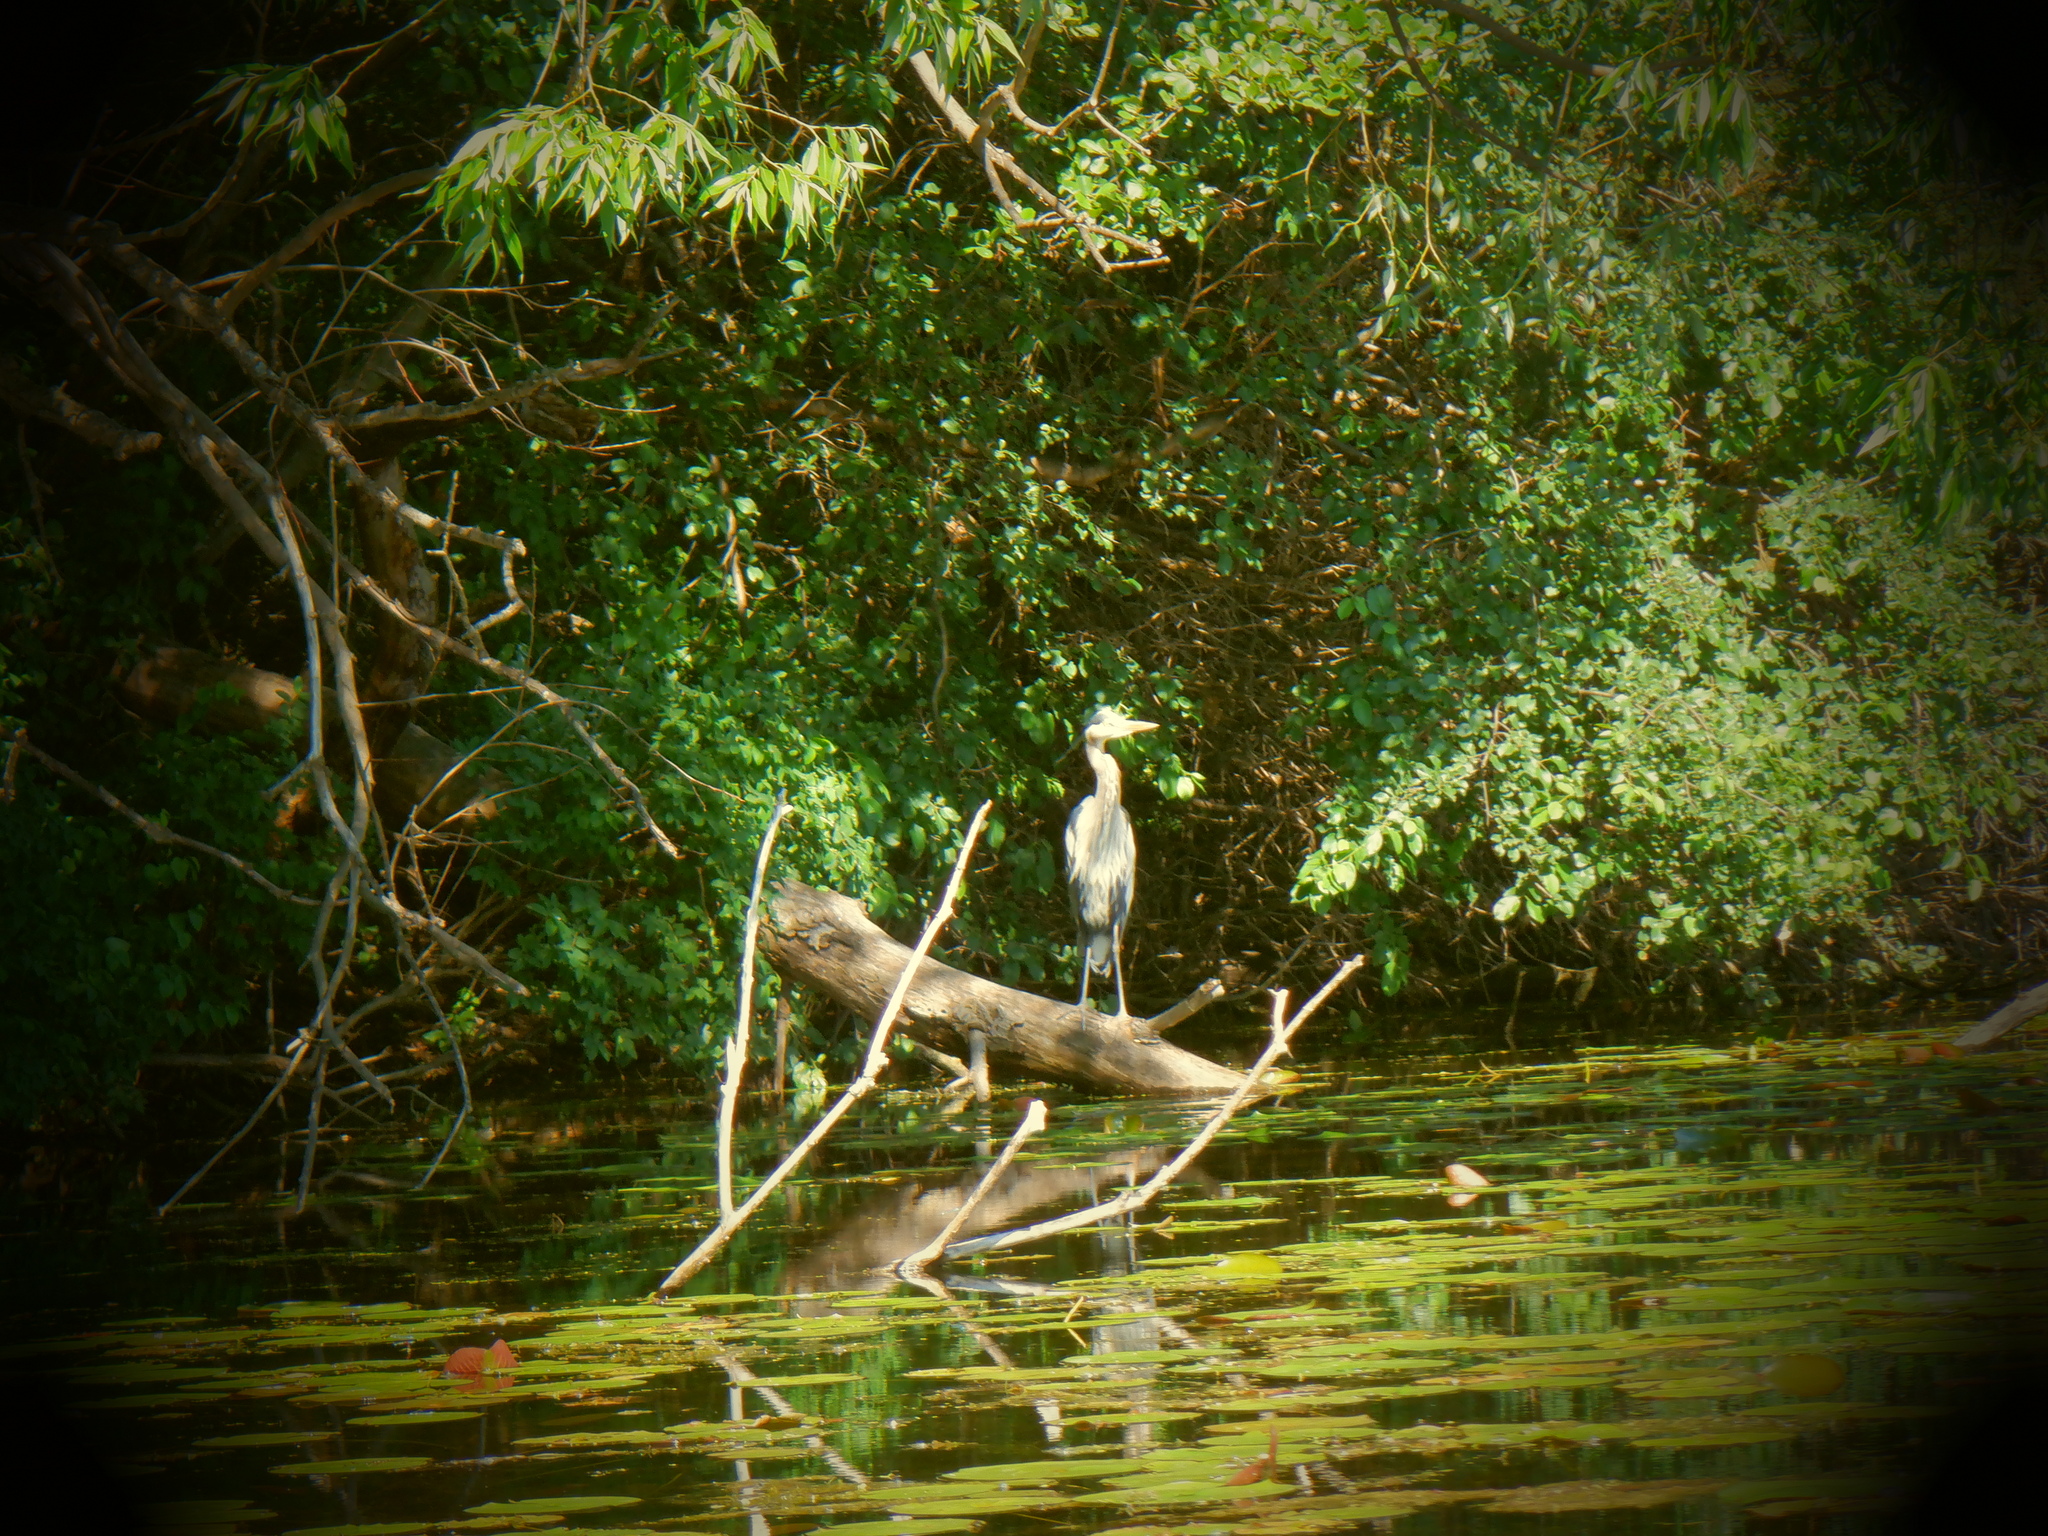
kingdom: Animalia
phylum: Chordata
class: Aves
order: Pelecaniformes
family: Ardeidae
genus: Ardea
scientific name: Ardea herodias
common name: Great blue heron
